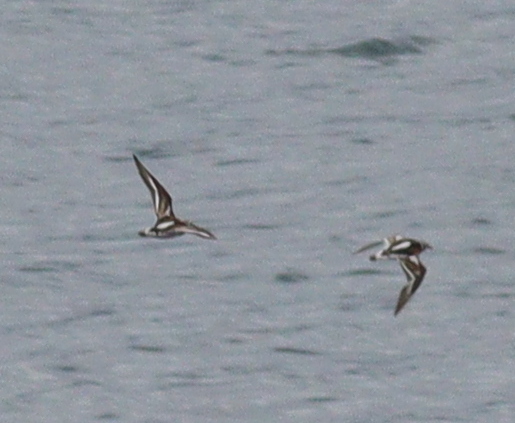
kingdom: Animalia
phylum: Chordata
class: Aves
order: Charadriiformes
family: Scolopacidae
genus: Arenaria
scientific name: Arenaria interpres
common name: Ruddy turnstone
